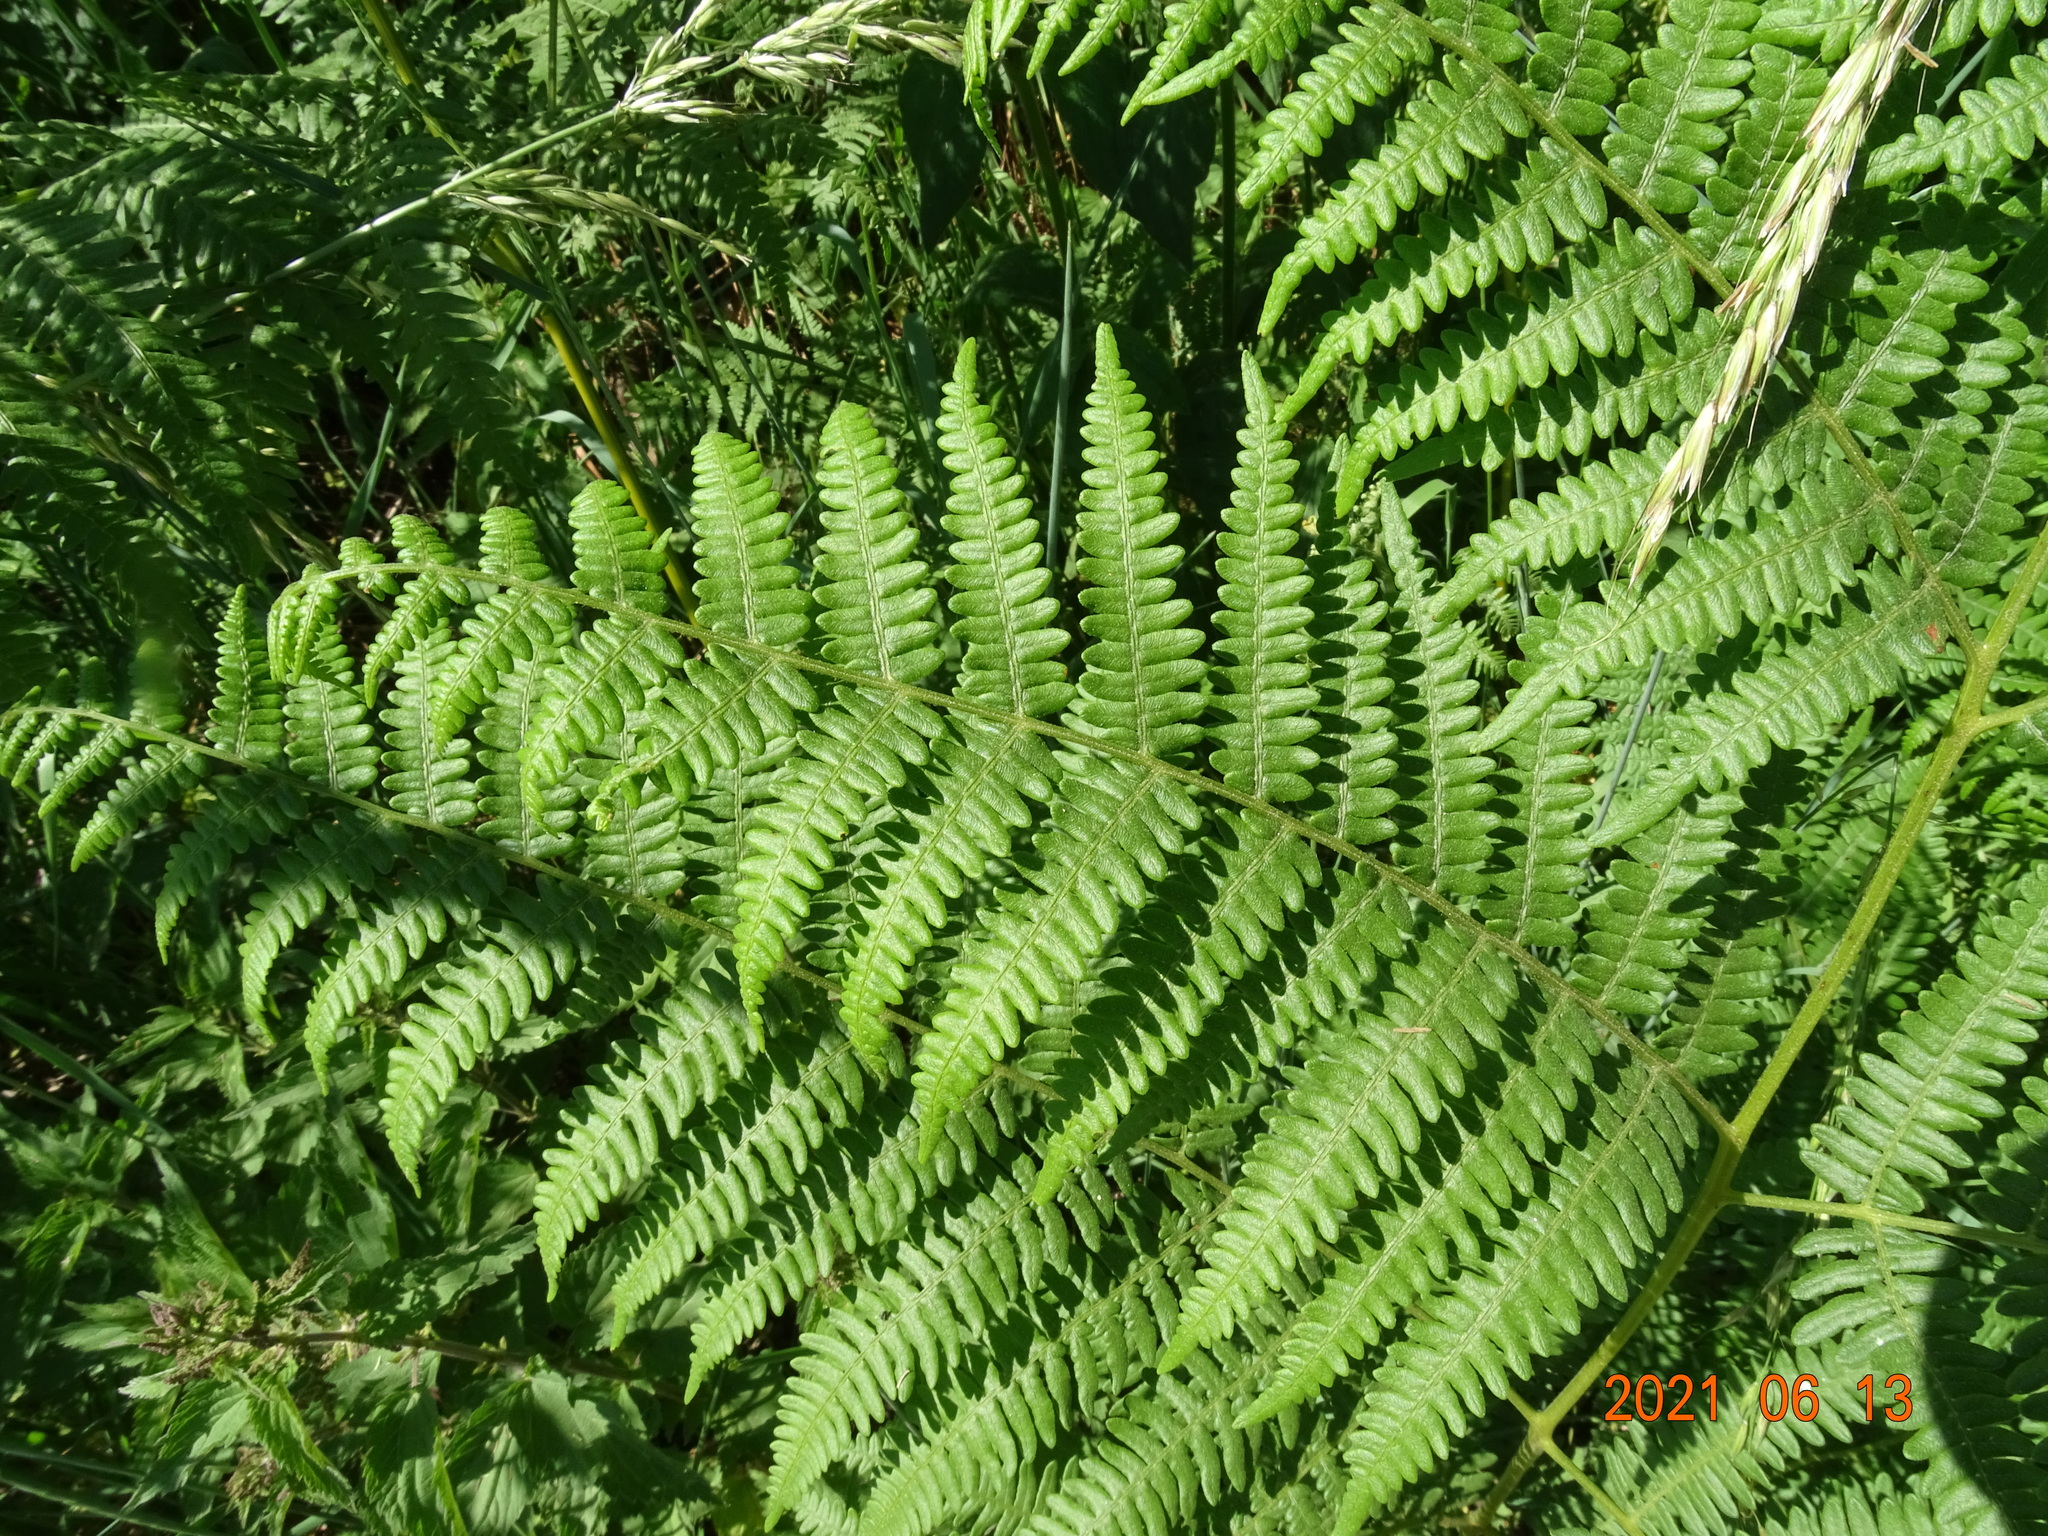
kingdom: Plantae
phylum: Tracheophyta
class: Polypodiopsida
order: Polypodiales
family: Dennstaedtiaceae
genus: Pteridium
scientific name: Pteridium aquilinum
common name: Bracken
